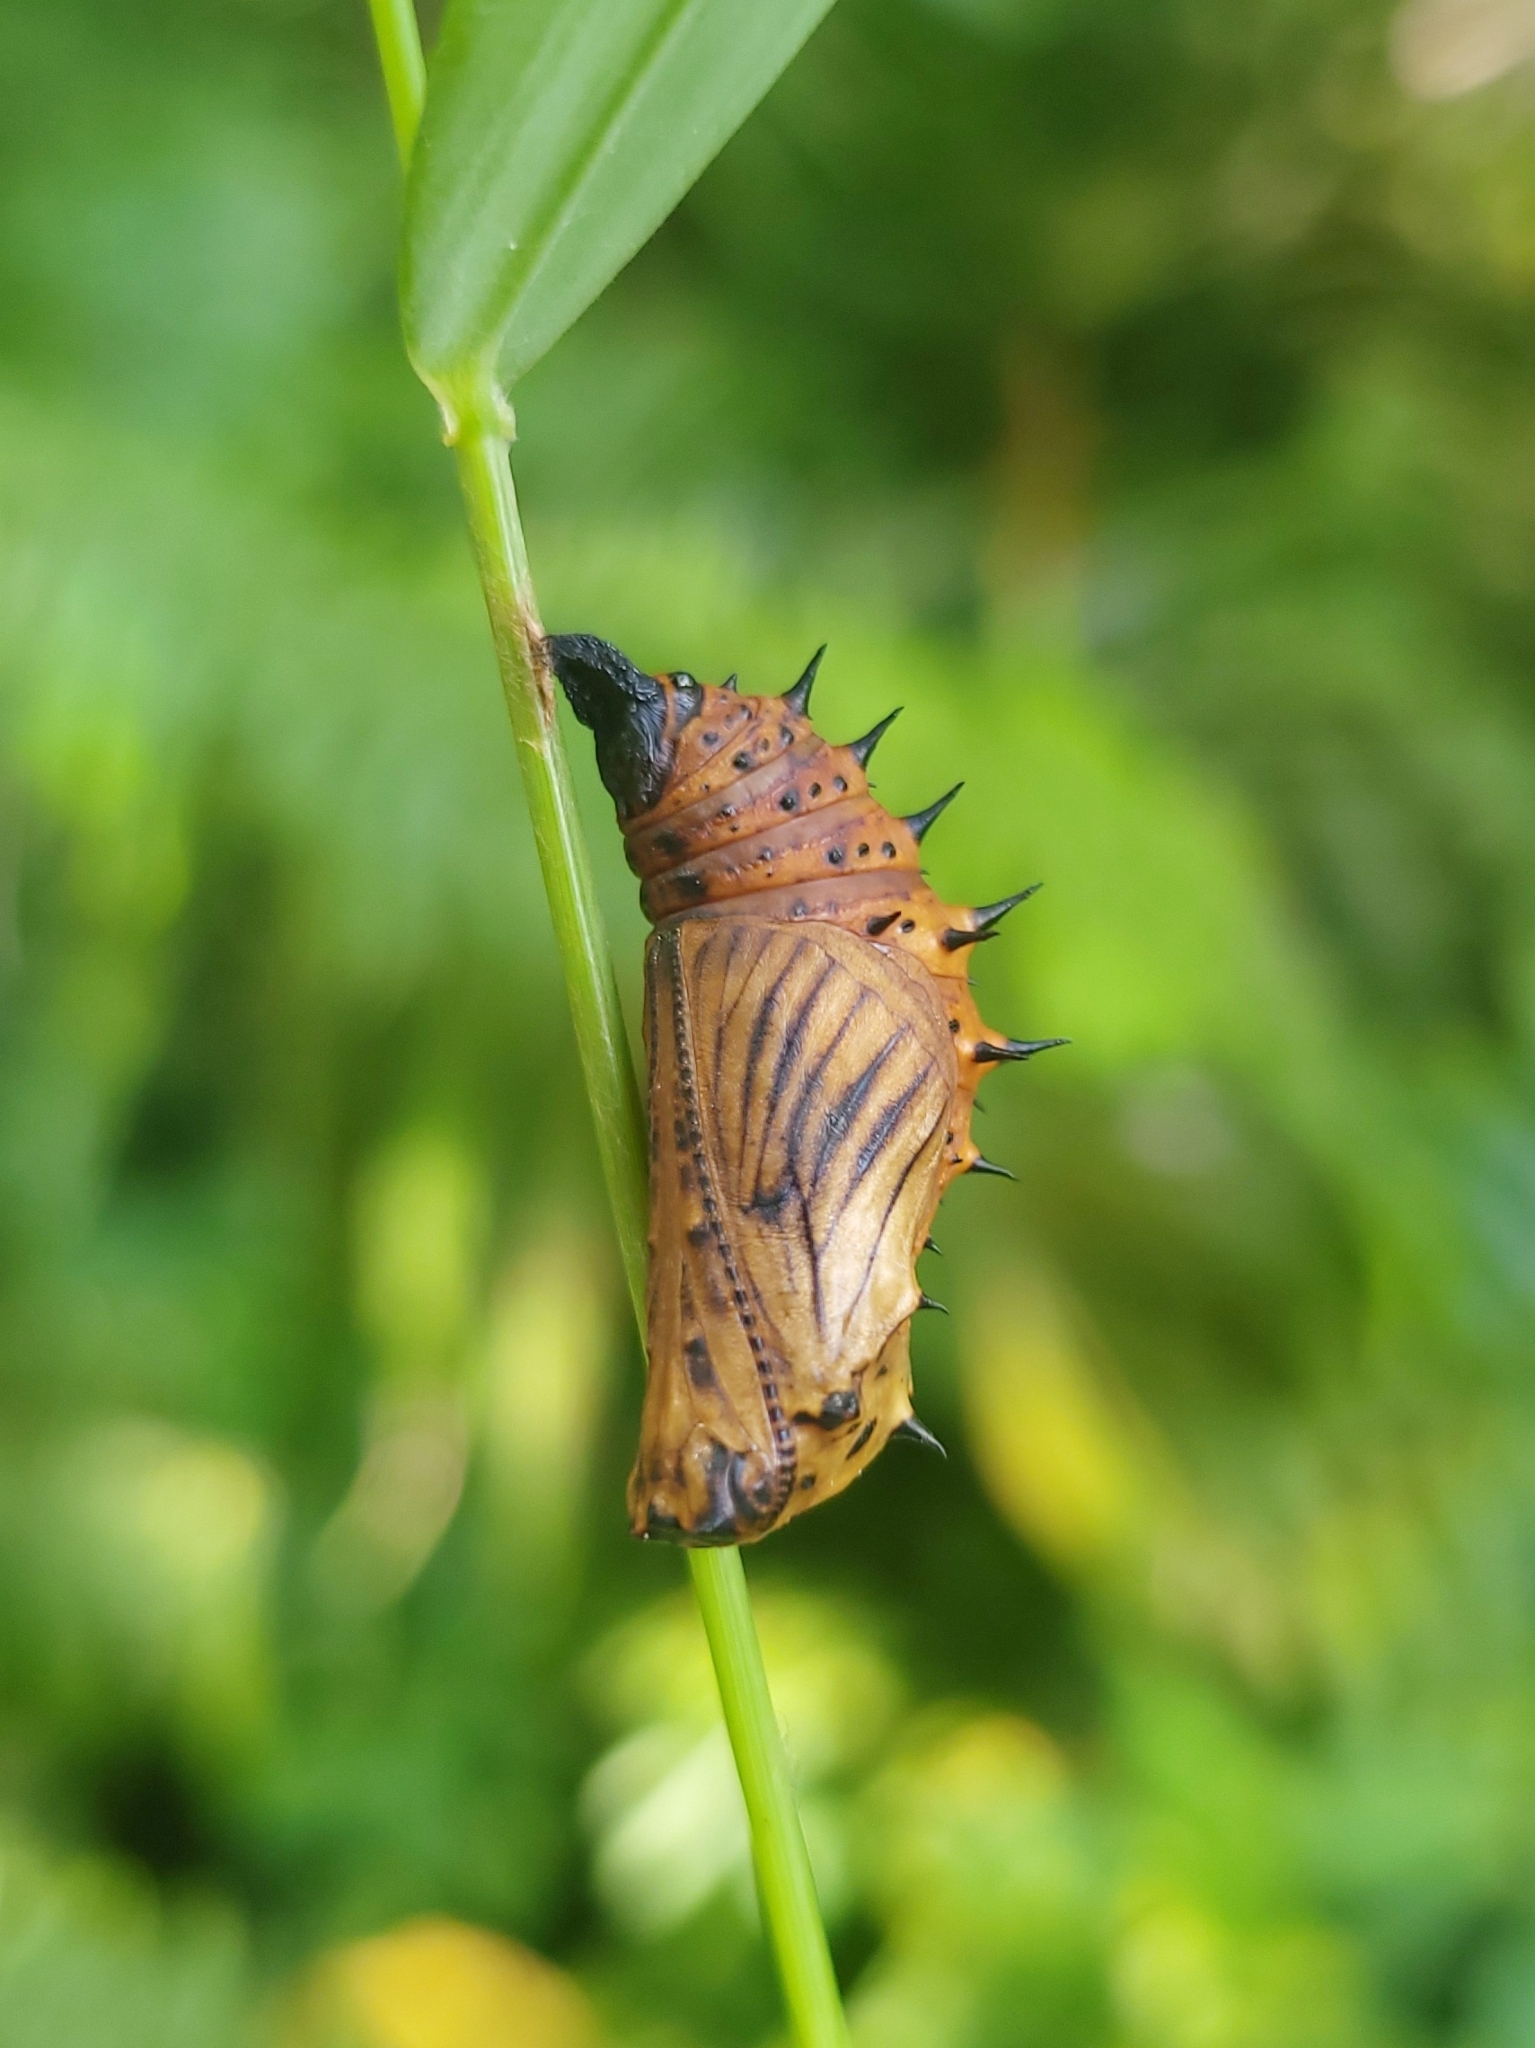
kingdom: Animalia
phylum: Arthropoda
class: Insecta
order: Lepidoptera
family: Nymphalidae
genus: Hypolimnas
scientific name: Hypolimnas anomala
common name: Malayan eggfly
